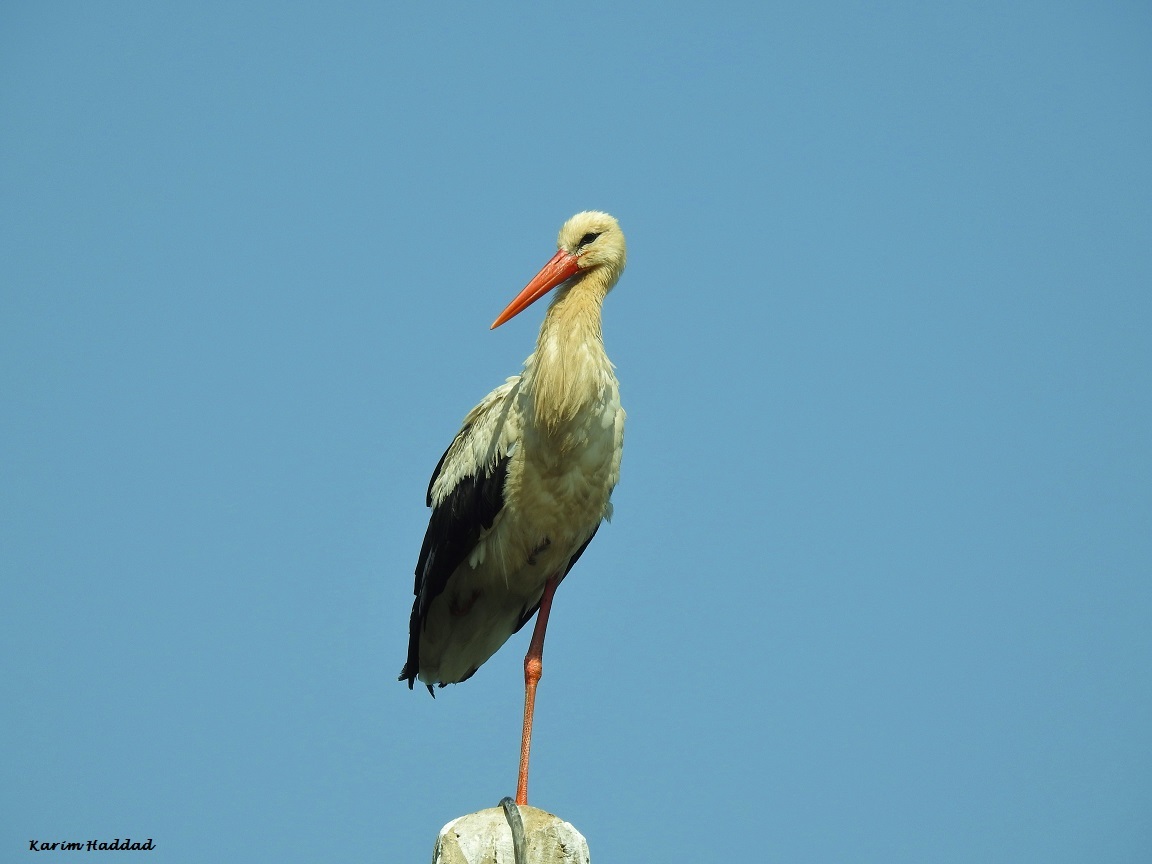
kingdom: Animalia
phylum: Chordata
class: Aves
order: Ciconiiformes
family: Ciconiidae
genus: Ciconia
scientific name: Ciconia ciconia
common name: White stork
